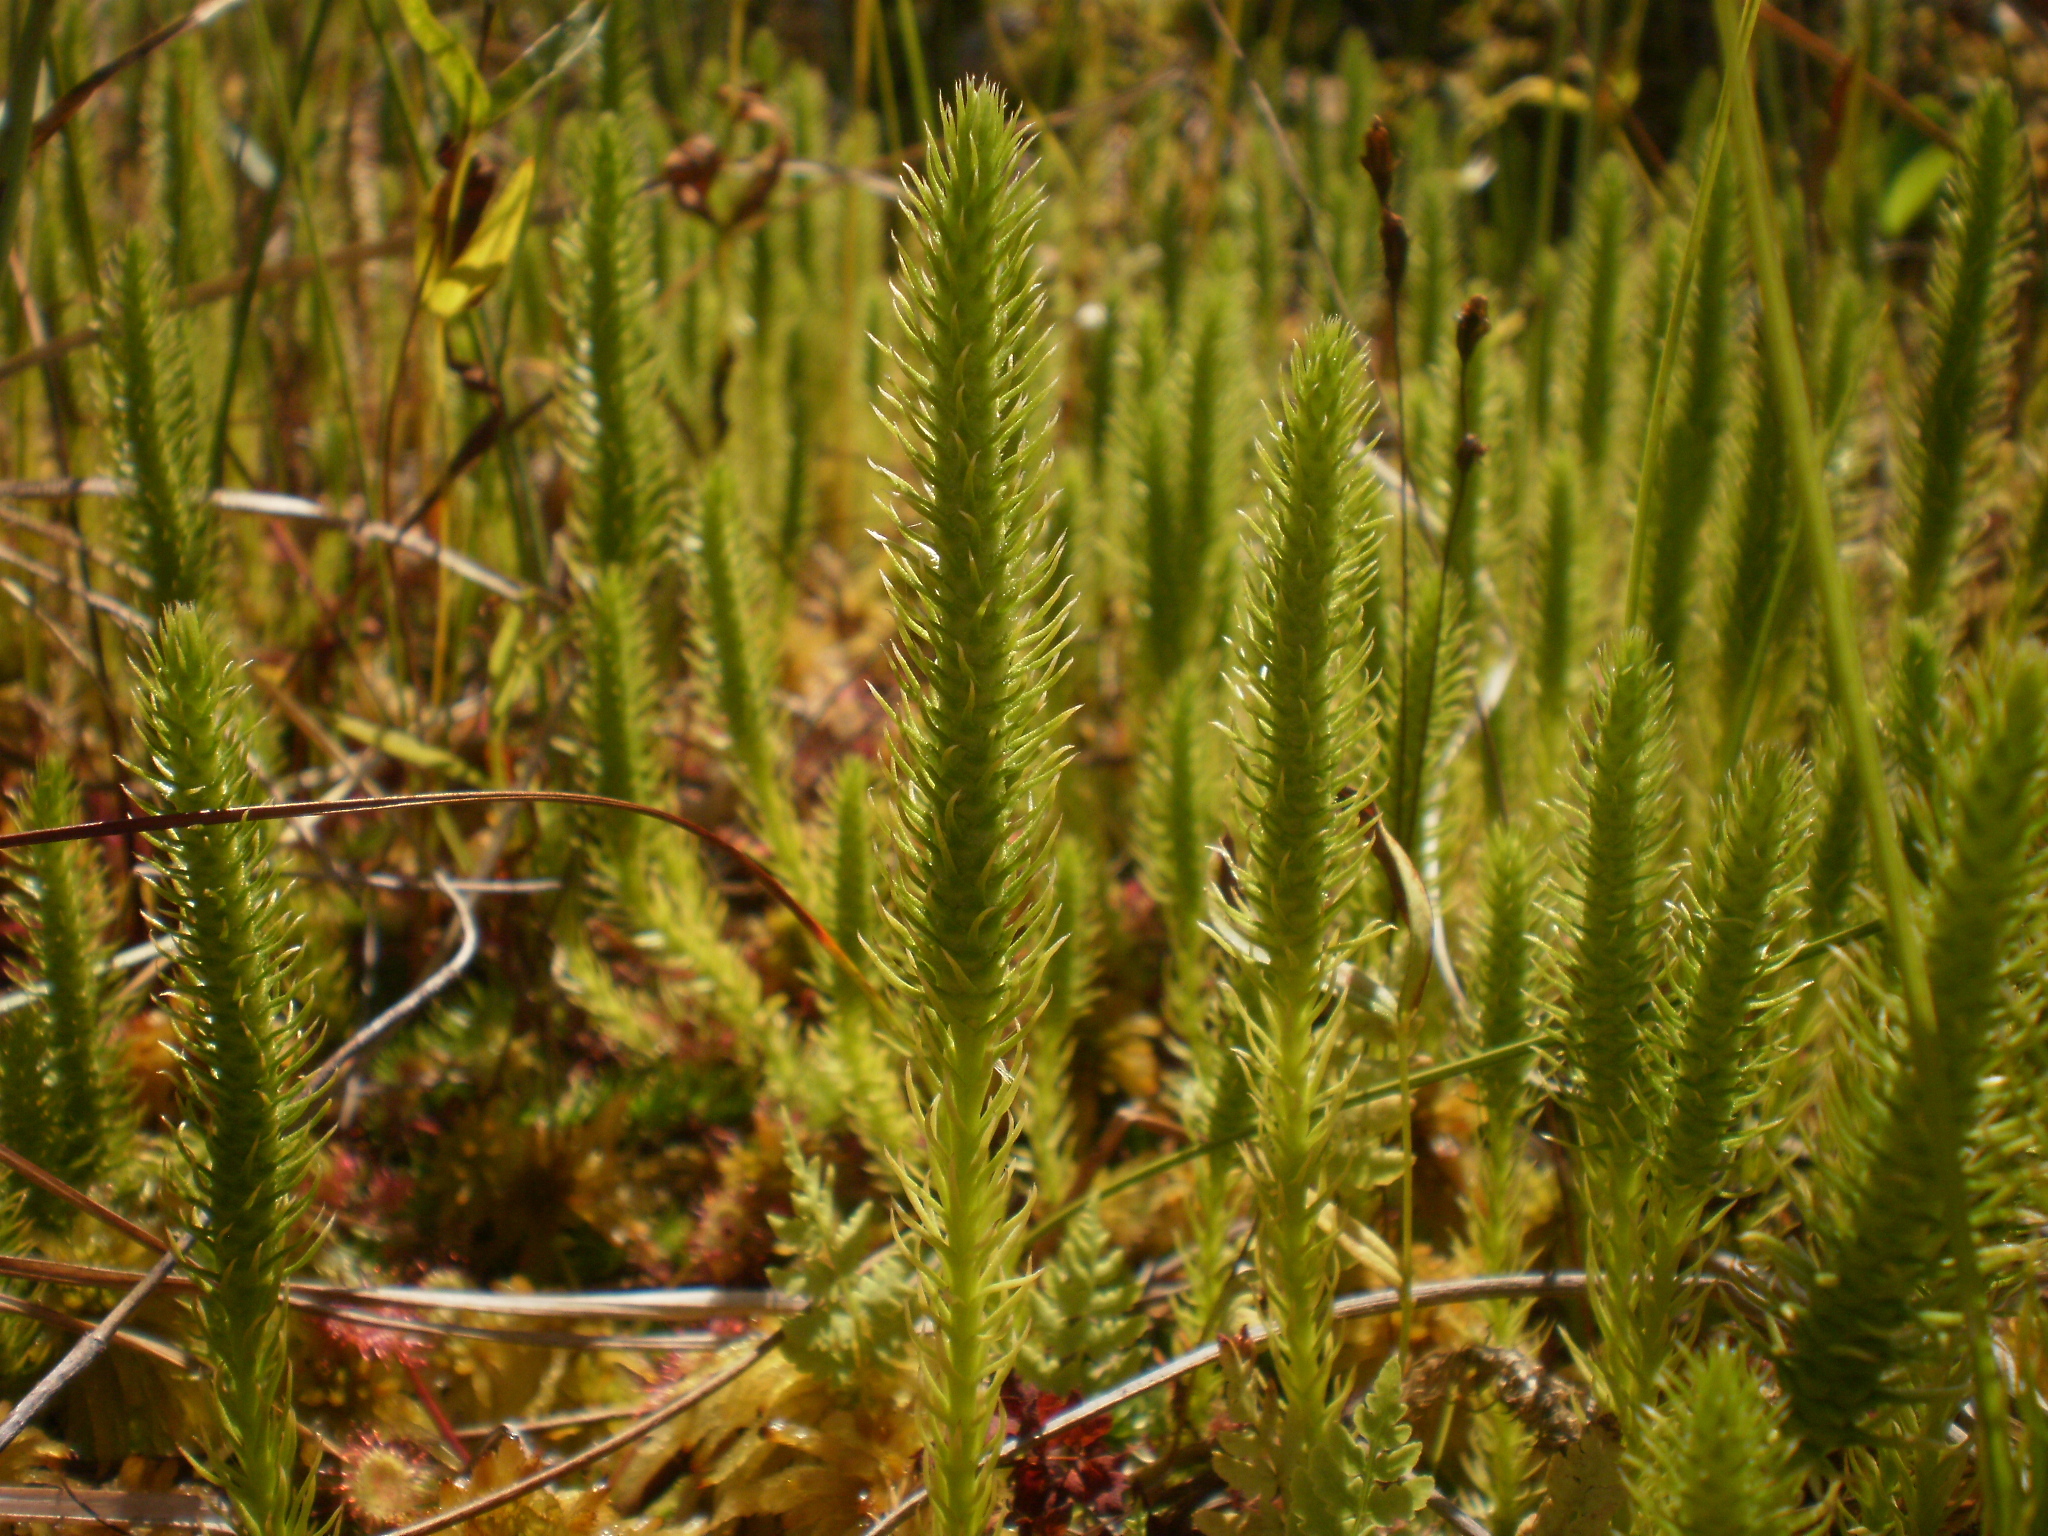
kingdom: Plantae
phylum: Tracheophyta
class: Lycopodiopsida
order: Lycopodiales
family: Lycopodiaceae
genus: Lycopodiella
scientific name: Lycopodiella inundata
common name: Marsh clubmoss
